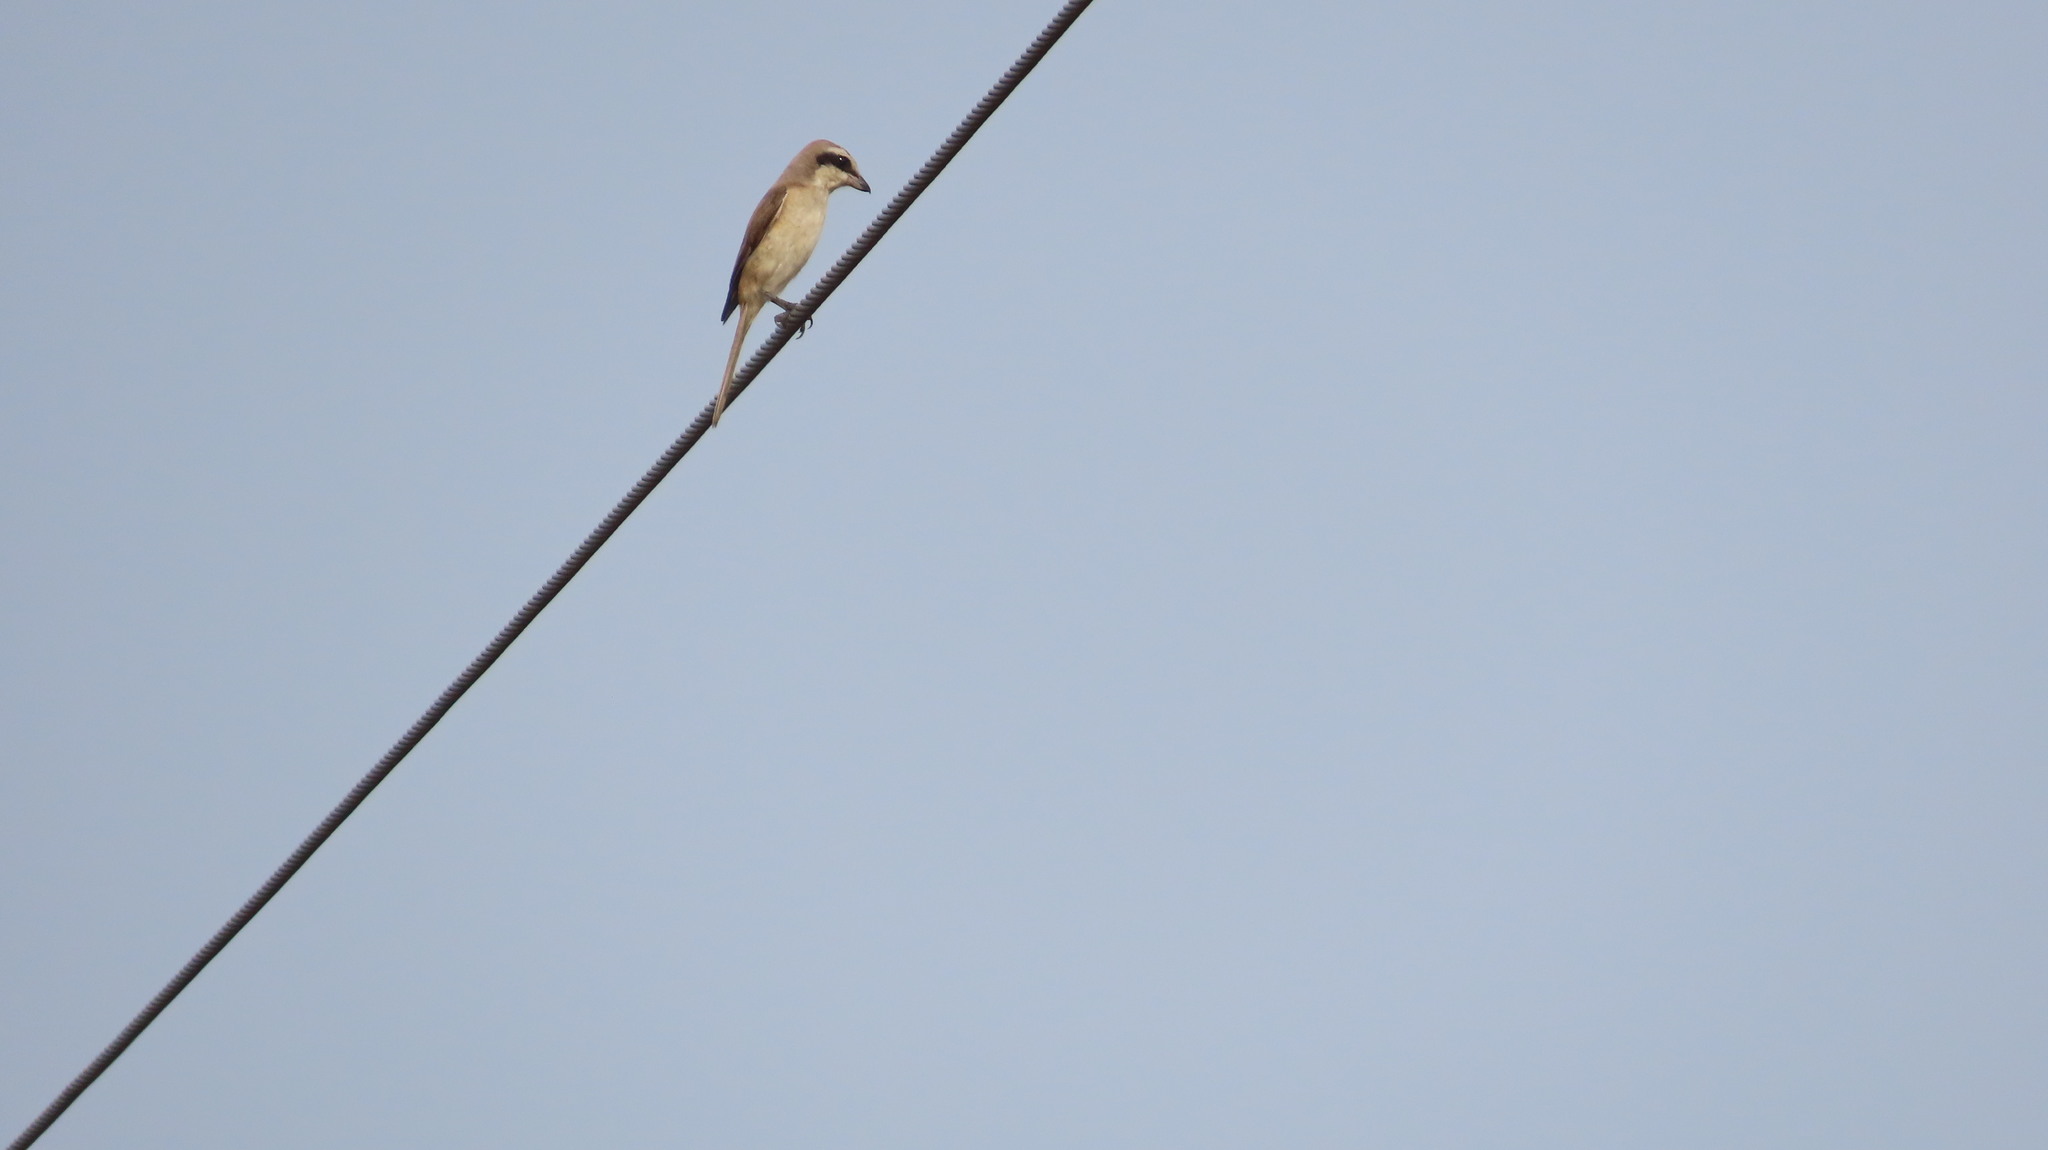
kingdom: Animalia
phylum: Chordata
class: Aves
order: Passeriformes
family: Laniidae
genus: Lanius
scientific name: Lanius cristatus
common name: Brown shrike
